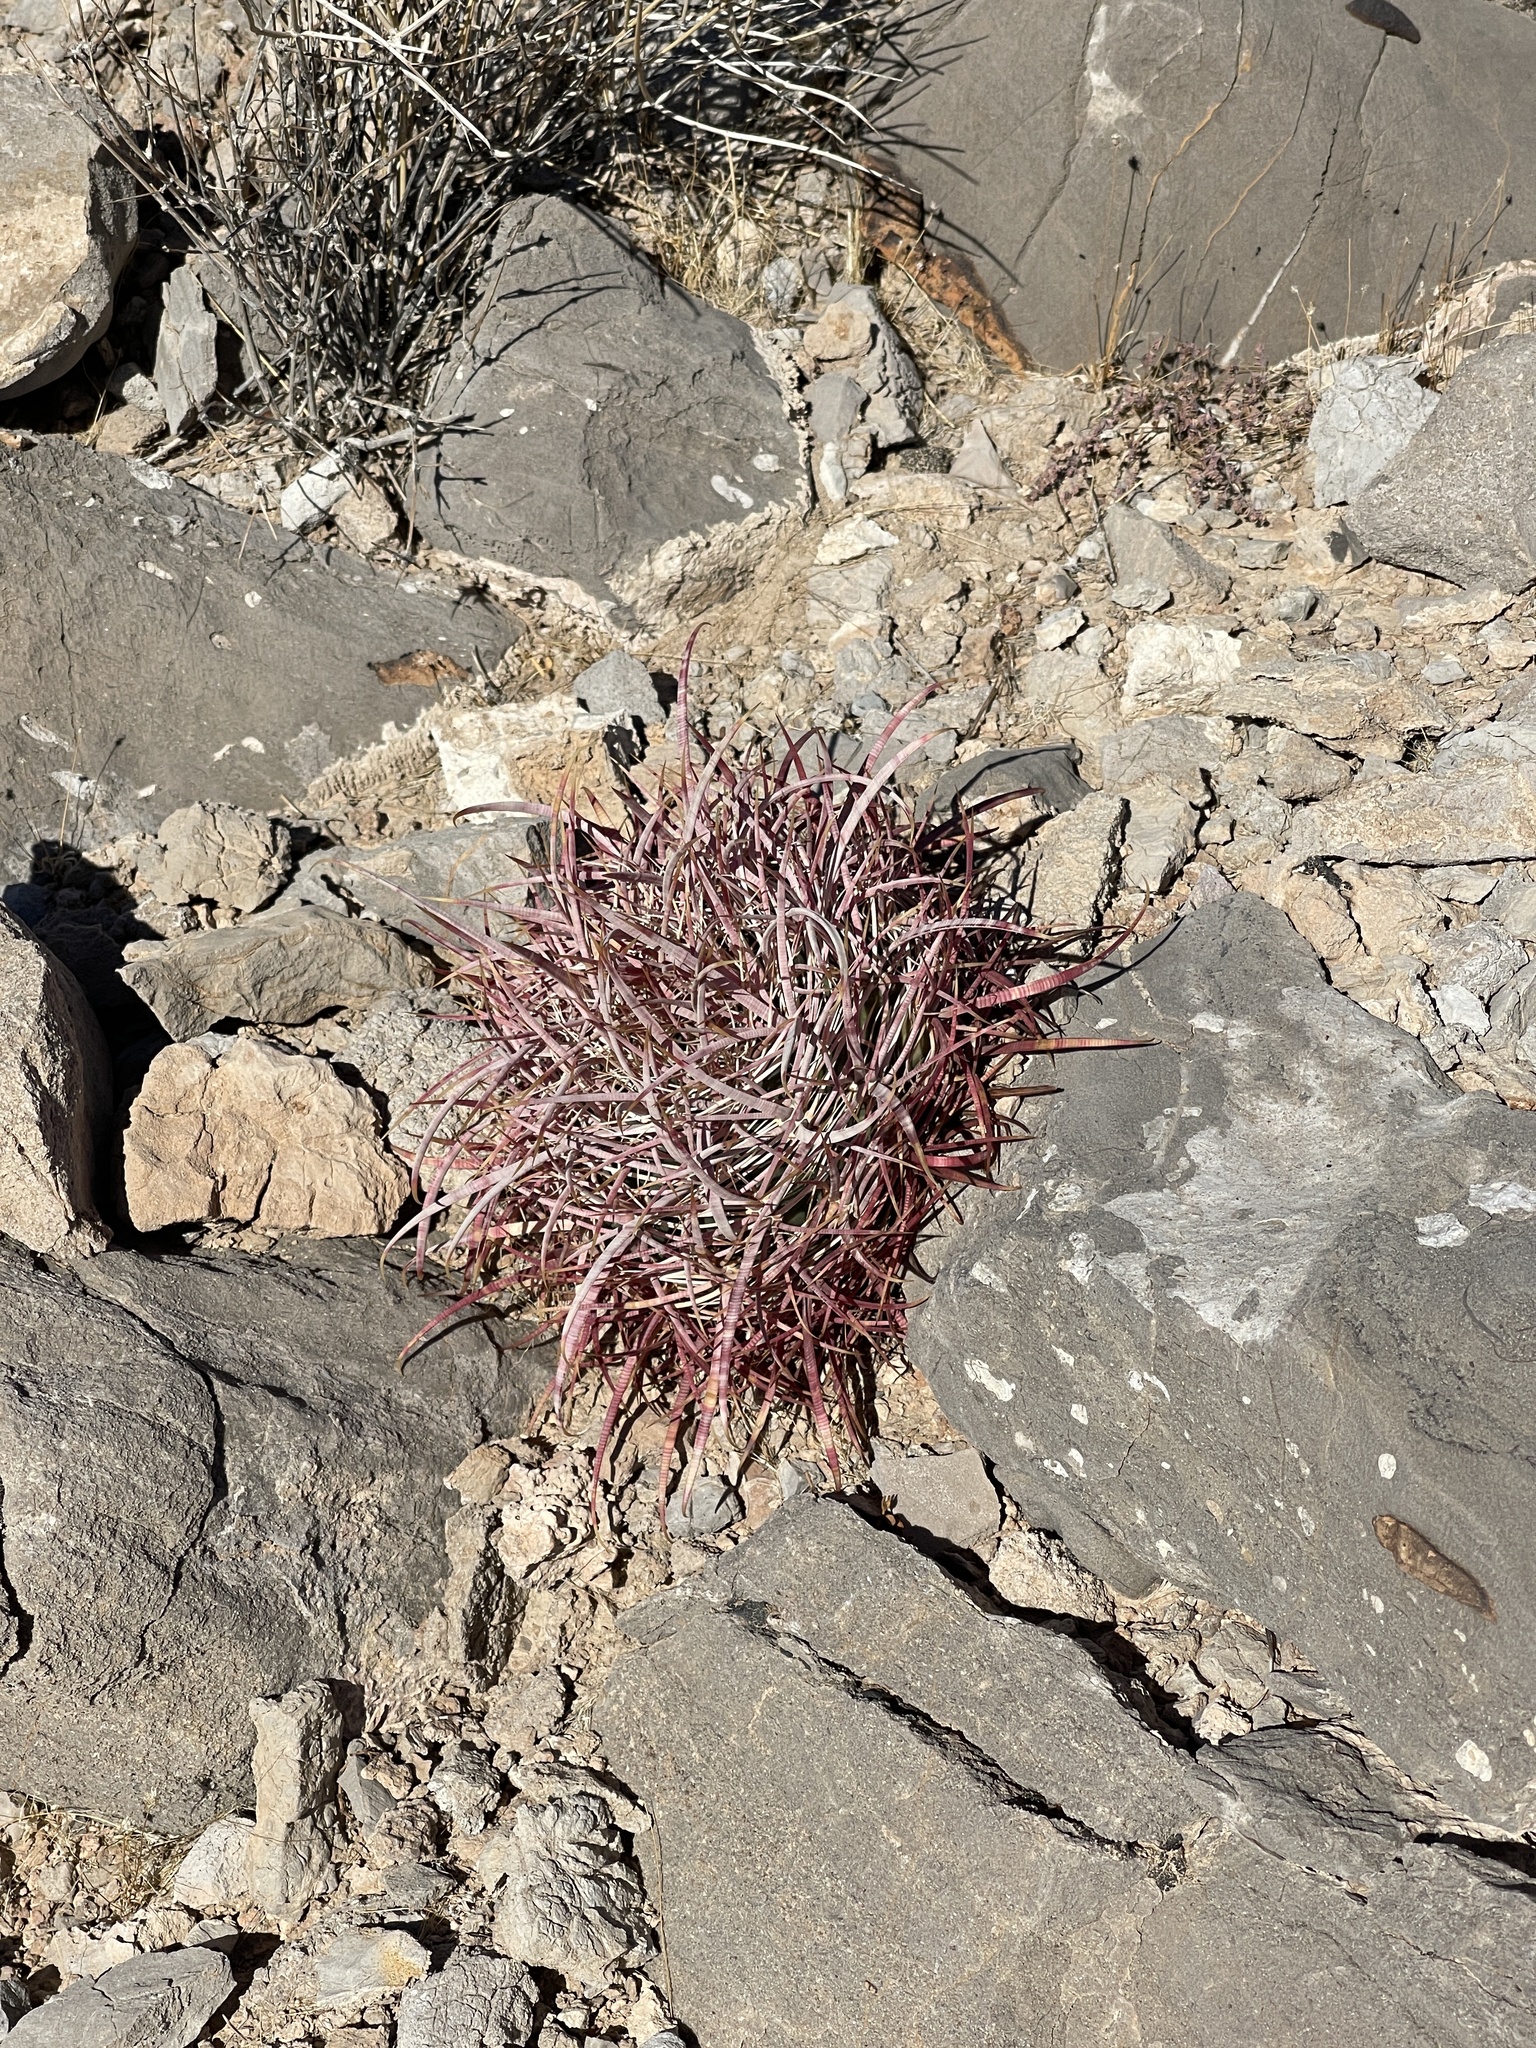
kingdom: Plantae
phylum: Tracheophyta
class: Magnoliopsida
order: Caryophyllales
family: Cactaceae
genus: Ferocactus
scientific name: Ferocactus cylindraceus
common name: California barrel cactus
